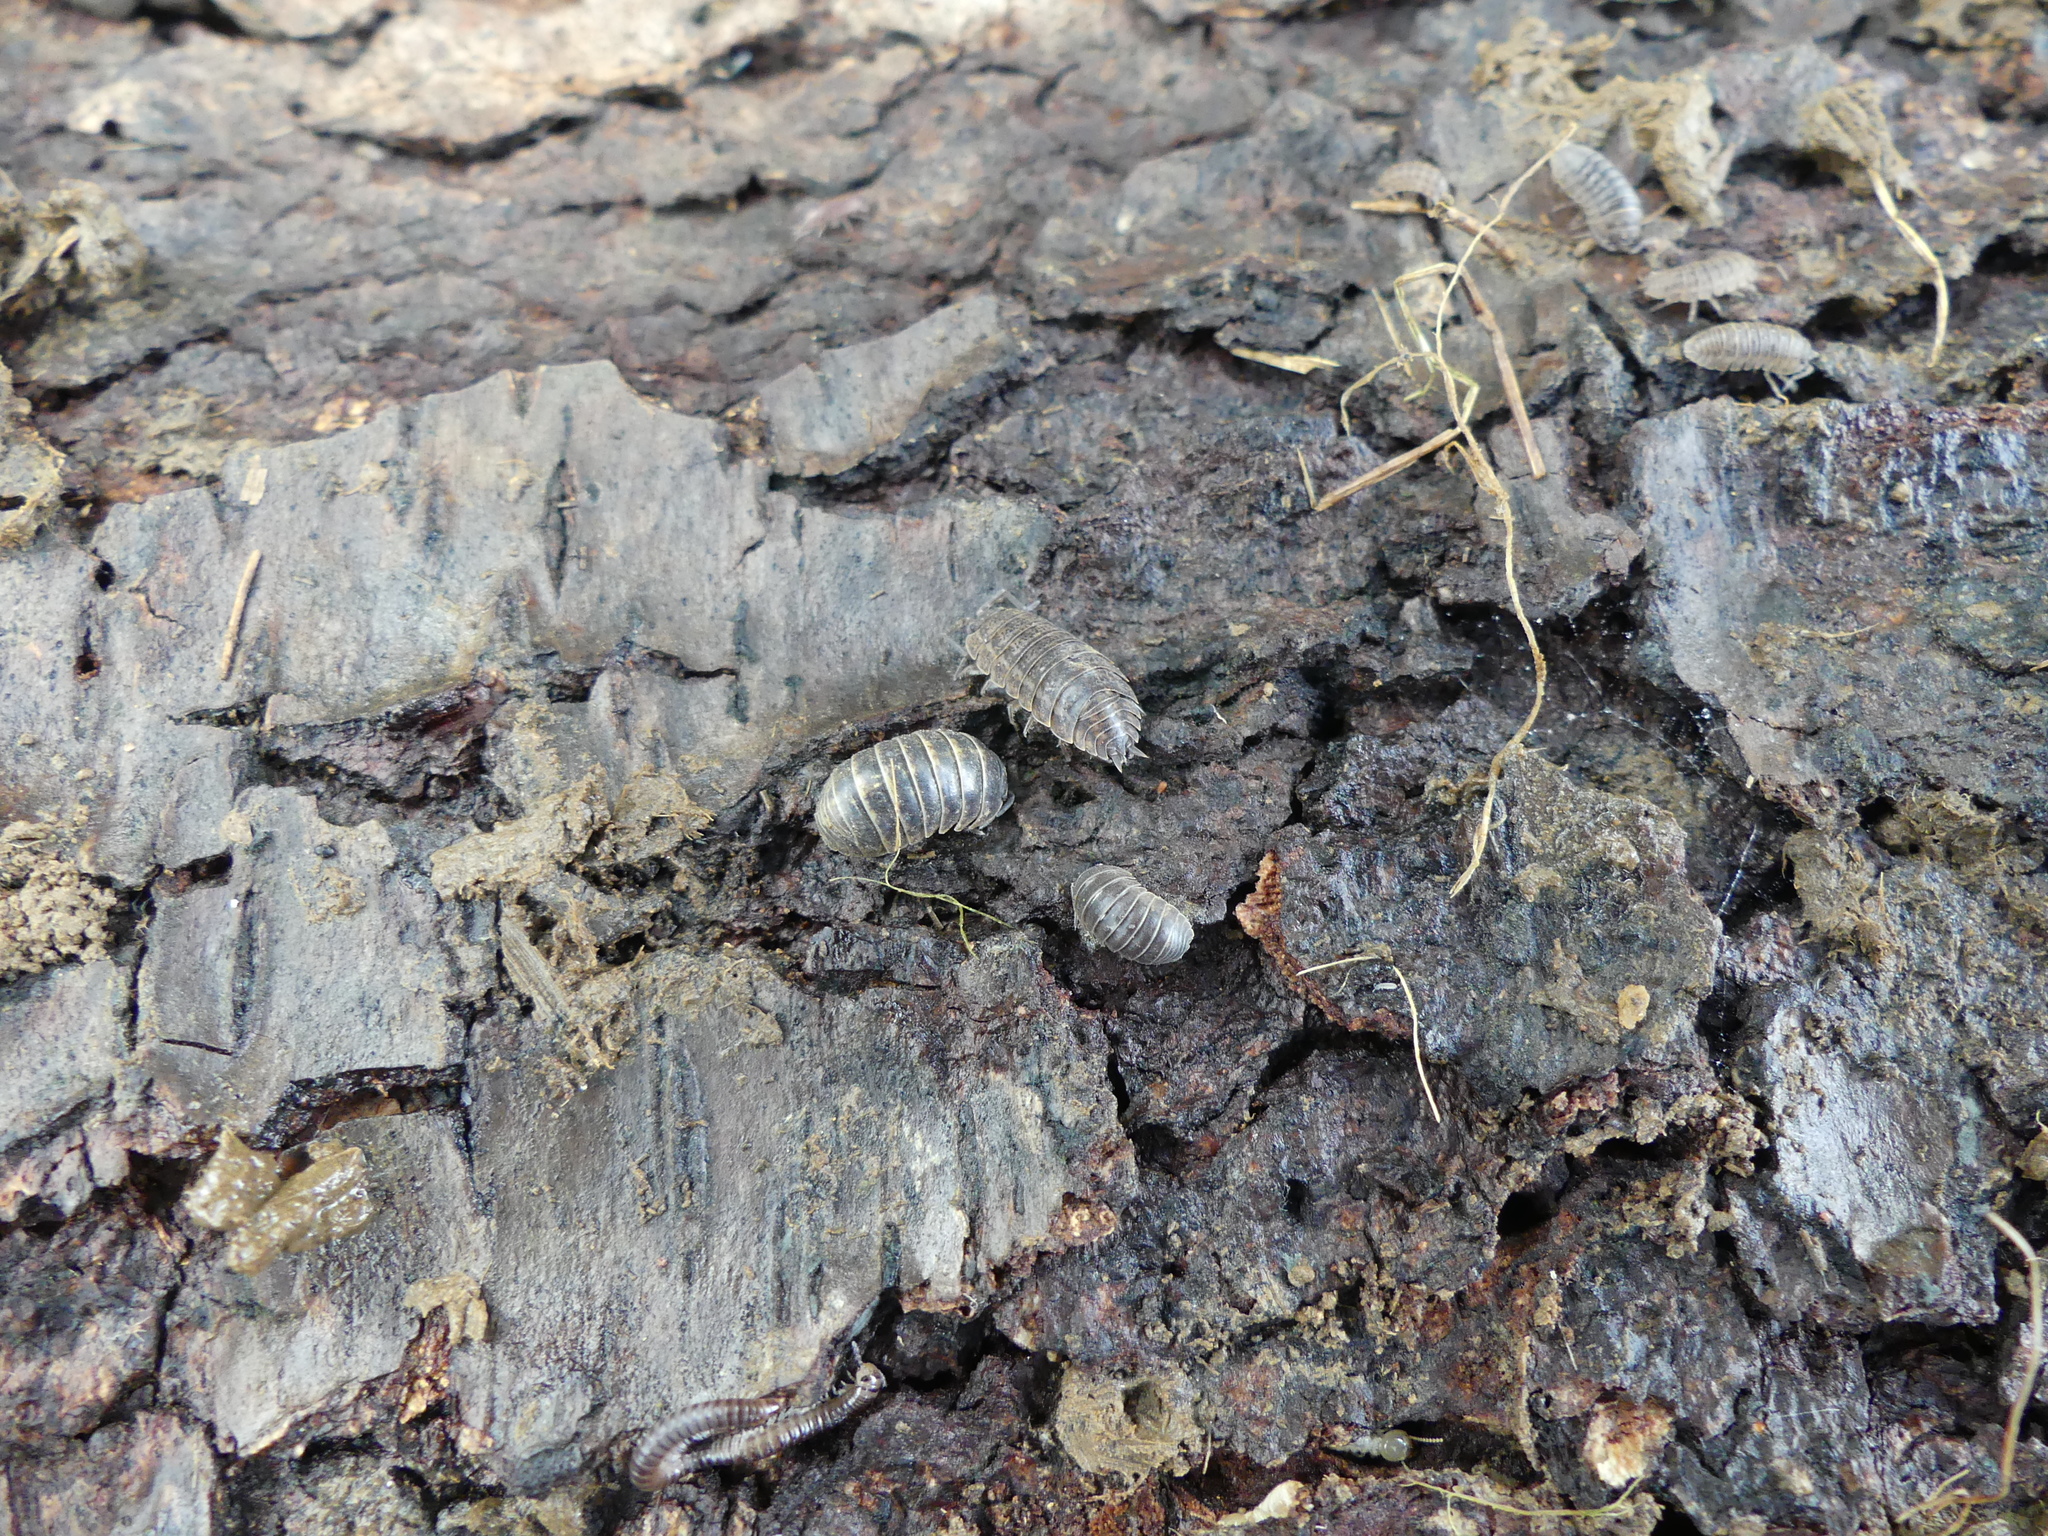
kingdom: Animalia
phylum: Arthropoda
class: Malacostraca
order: Isopoda
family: Armadillidiidae
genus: Armadillidium
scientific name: Armadillidium vulgare
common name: Common pill woodlouse
